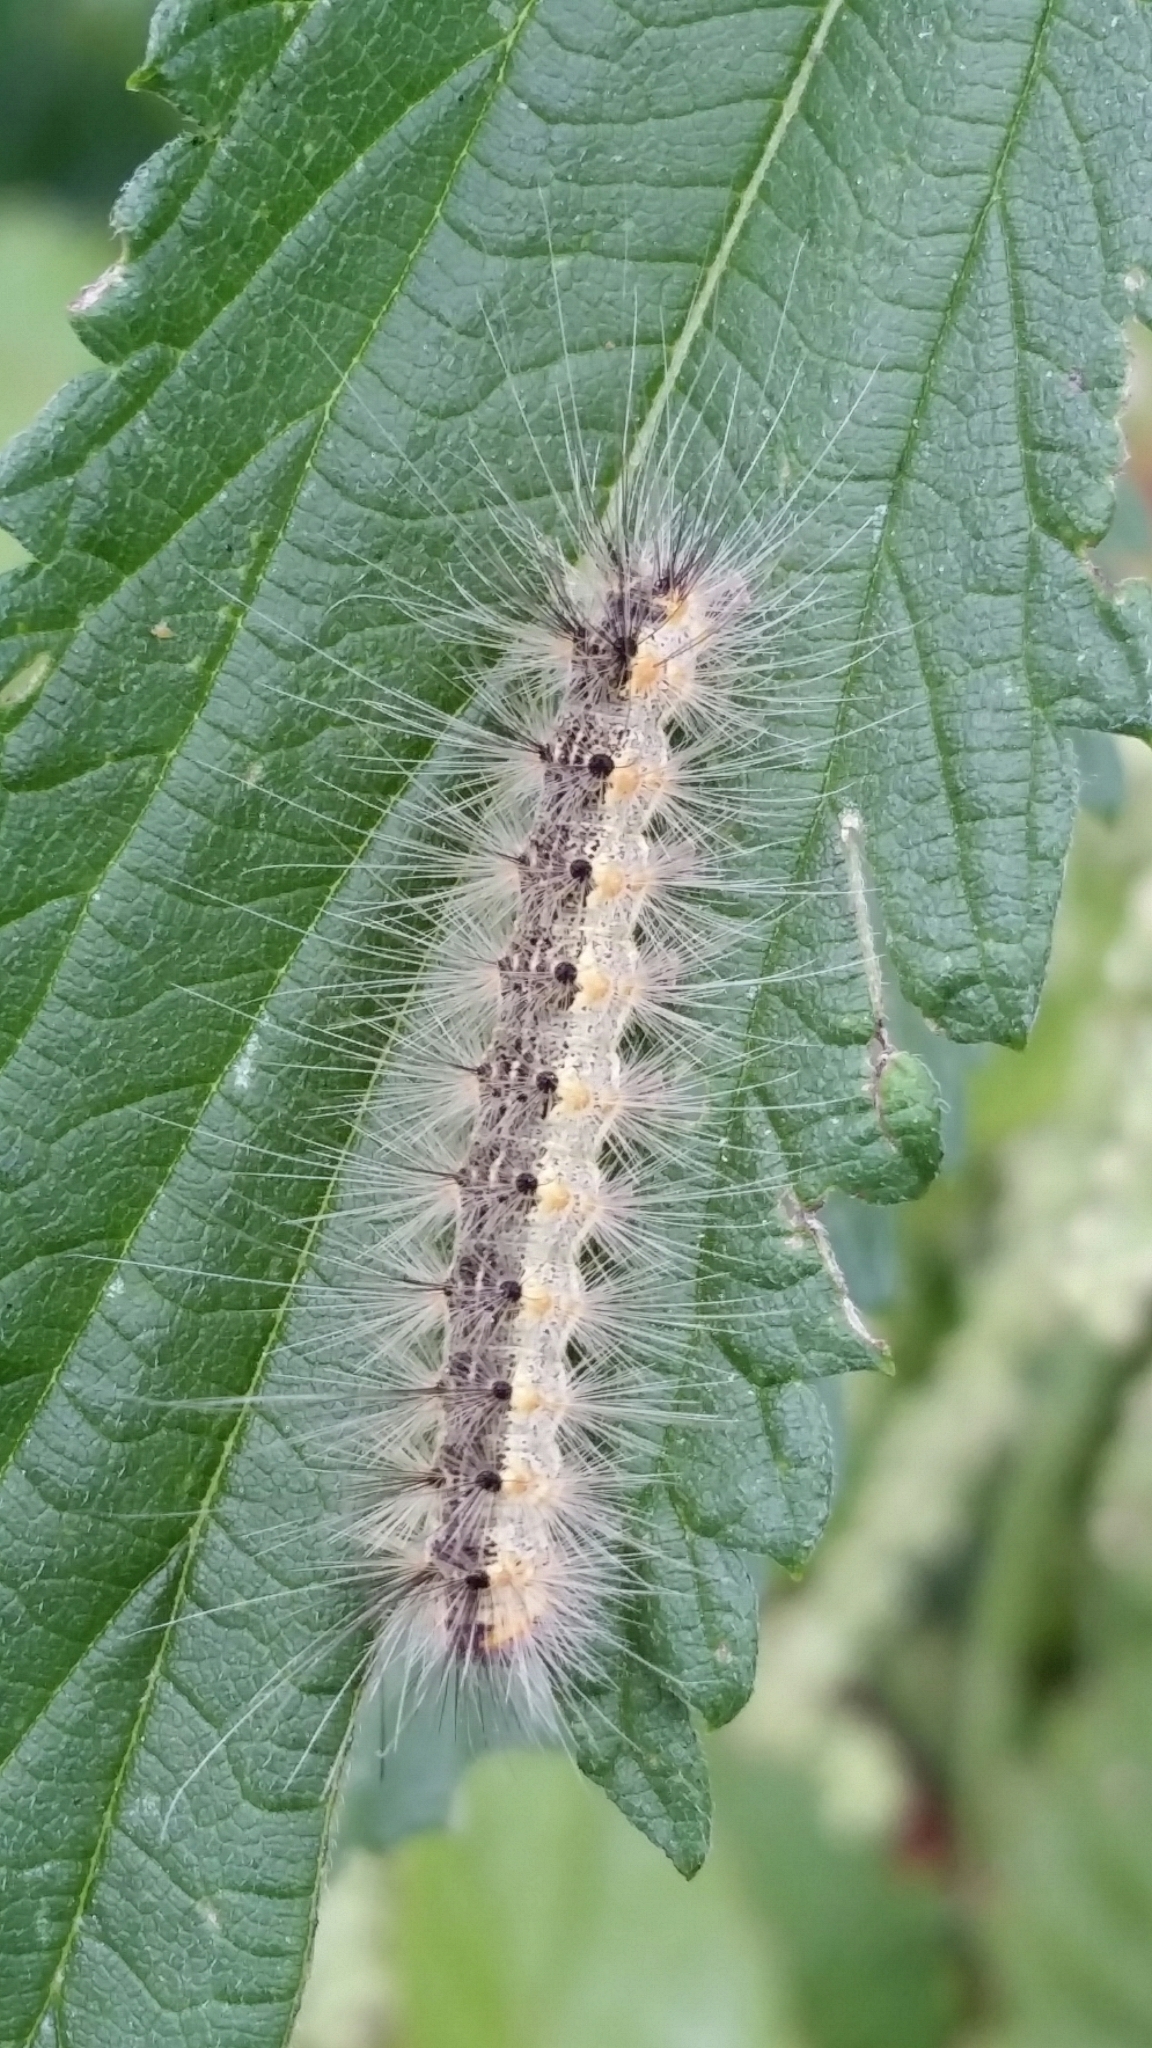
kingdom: Animalia
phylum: Arthropoda
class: Insecta
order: Lepidoptera
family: Erebidae
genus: Hyphantria
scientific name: Hyphantria cunea
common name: American white moth
